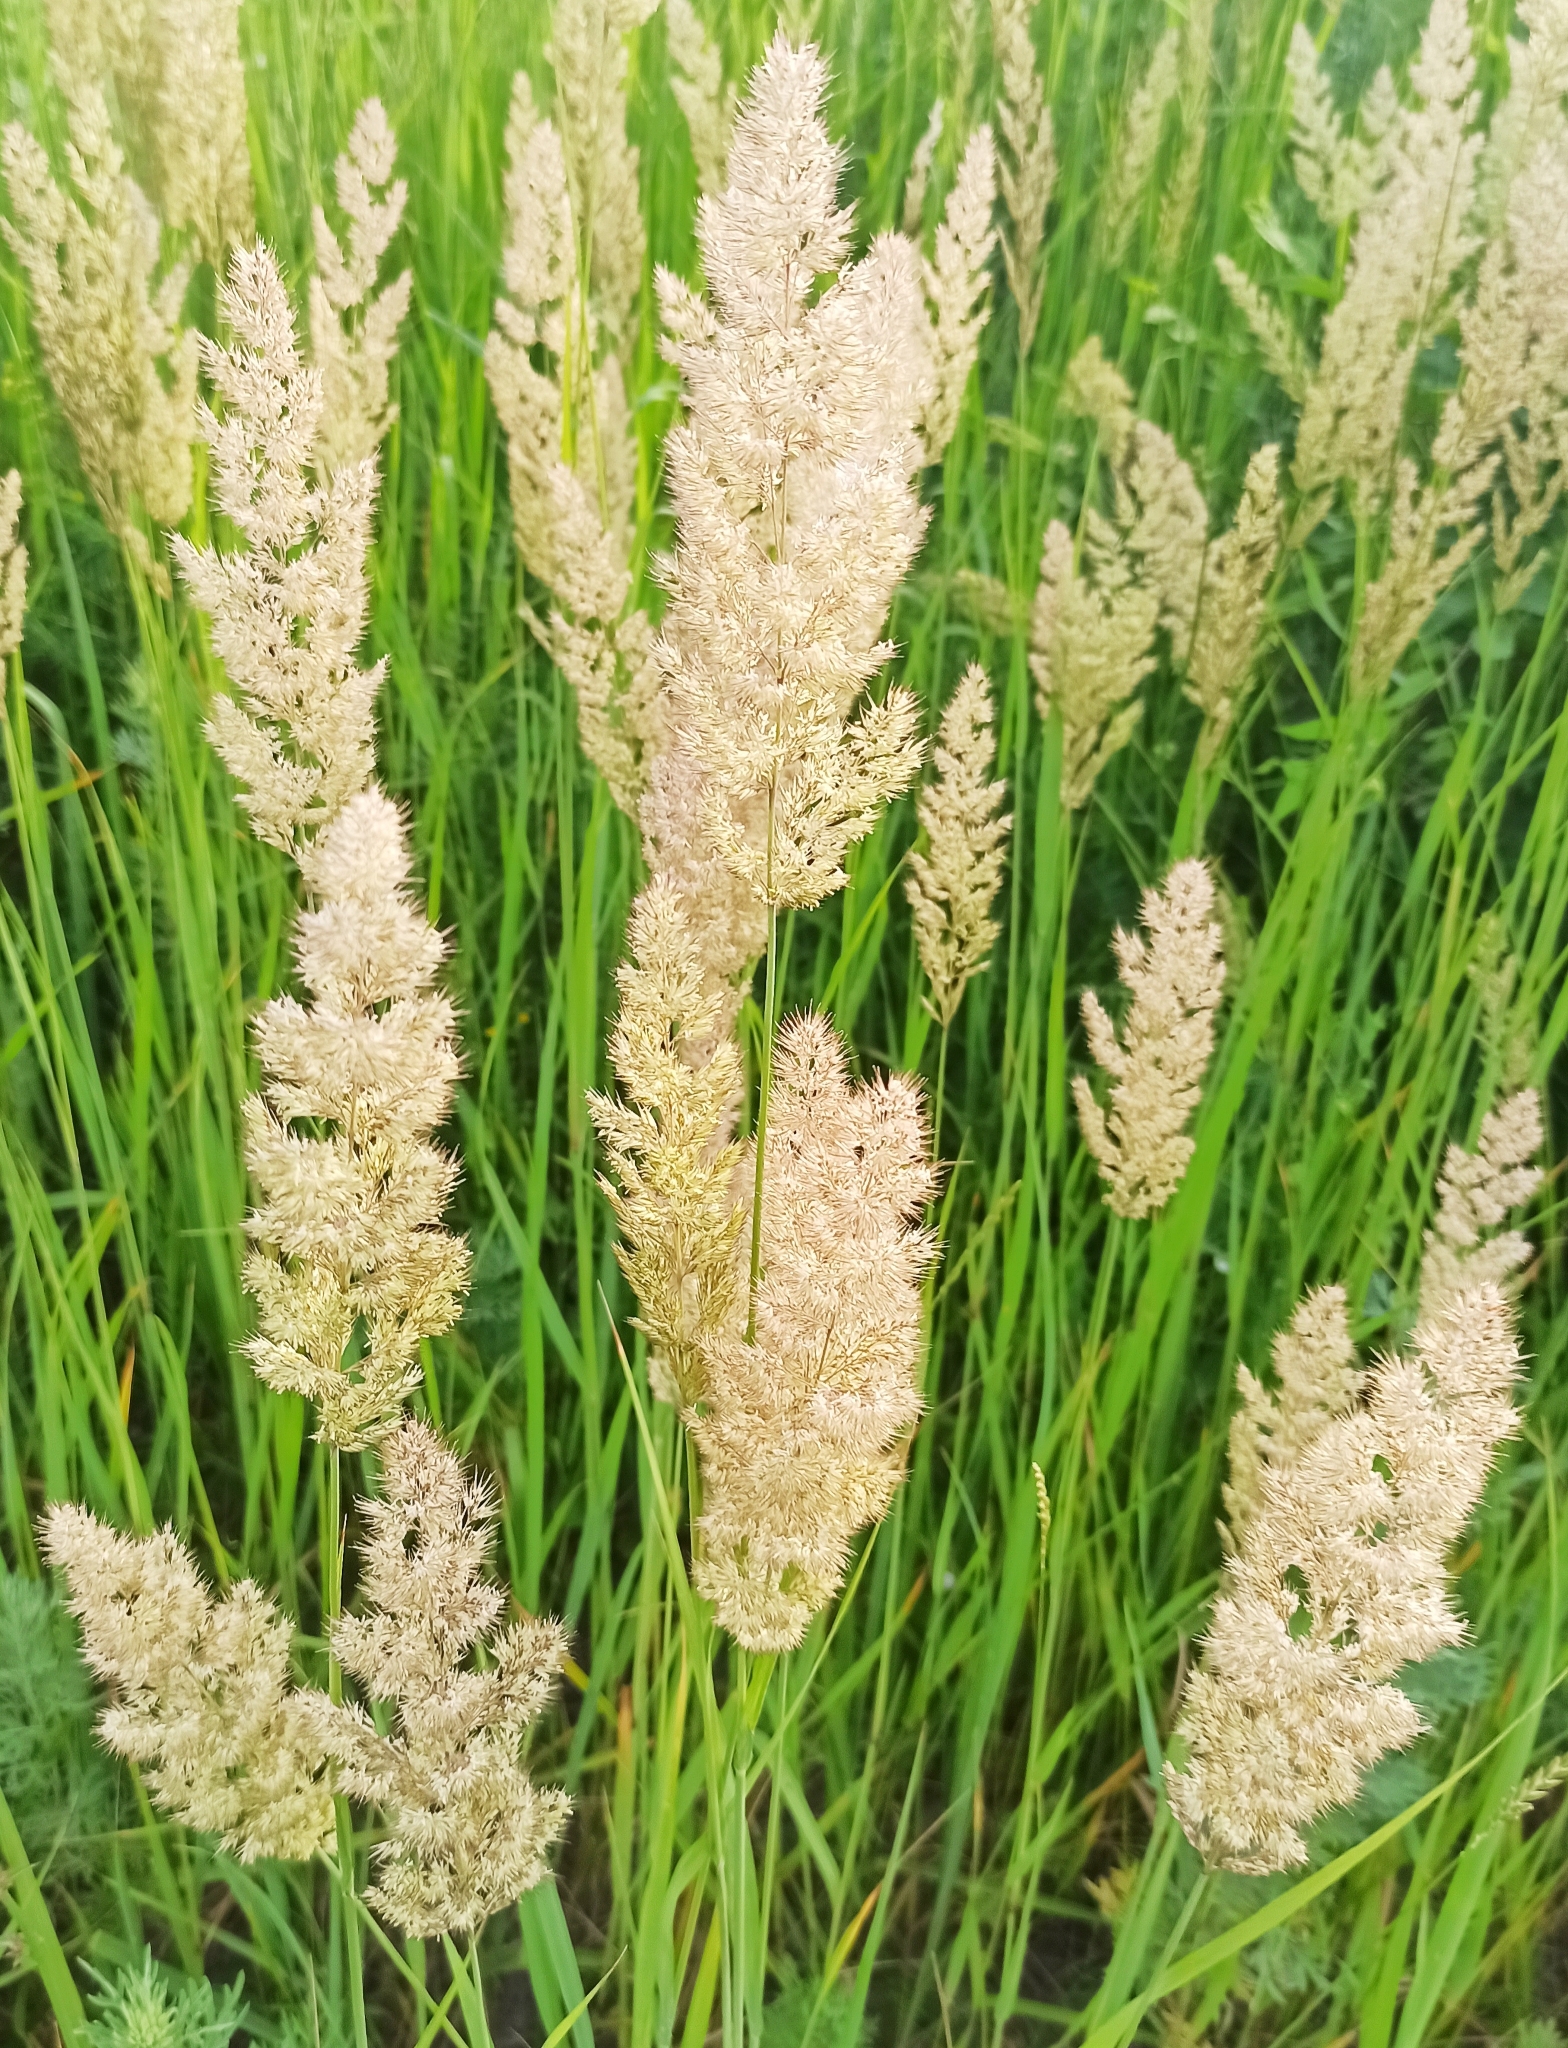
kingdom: Plantae
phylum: Tracheophyta
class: Liliopsida
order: Poales
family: Poaceae
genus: Calamagrostis
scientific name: Calamagrostis epigejos
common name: Wood small-reed
